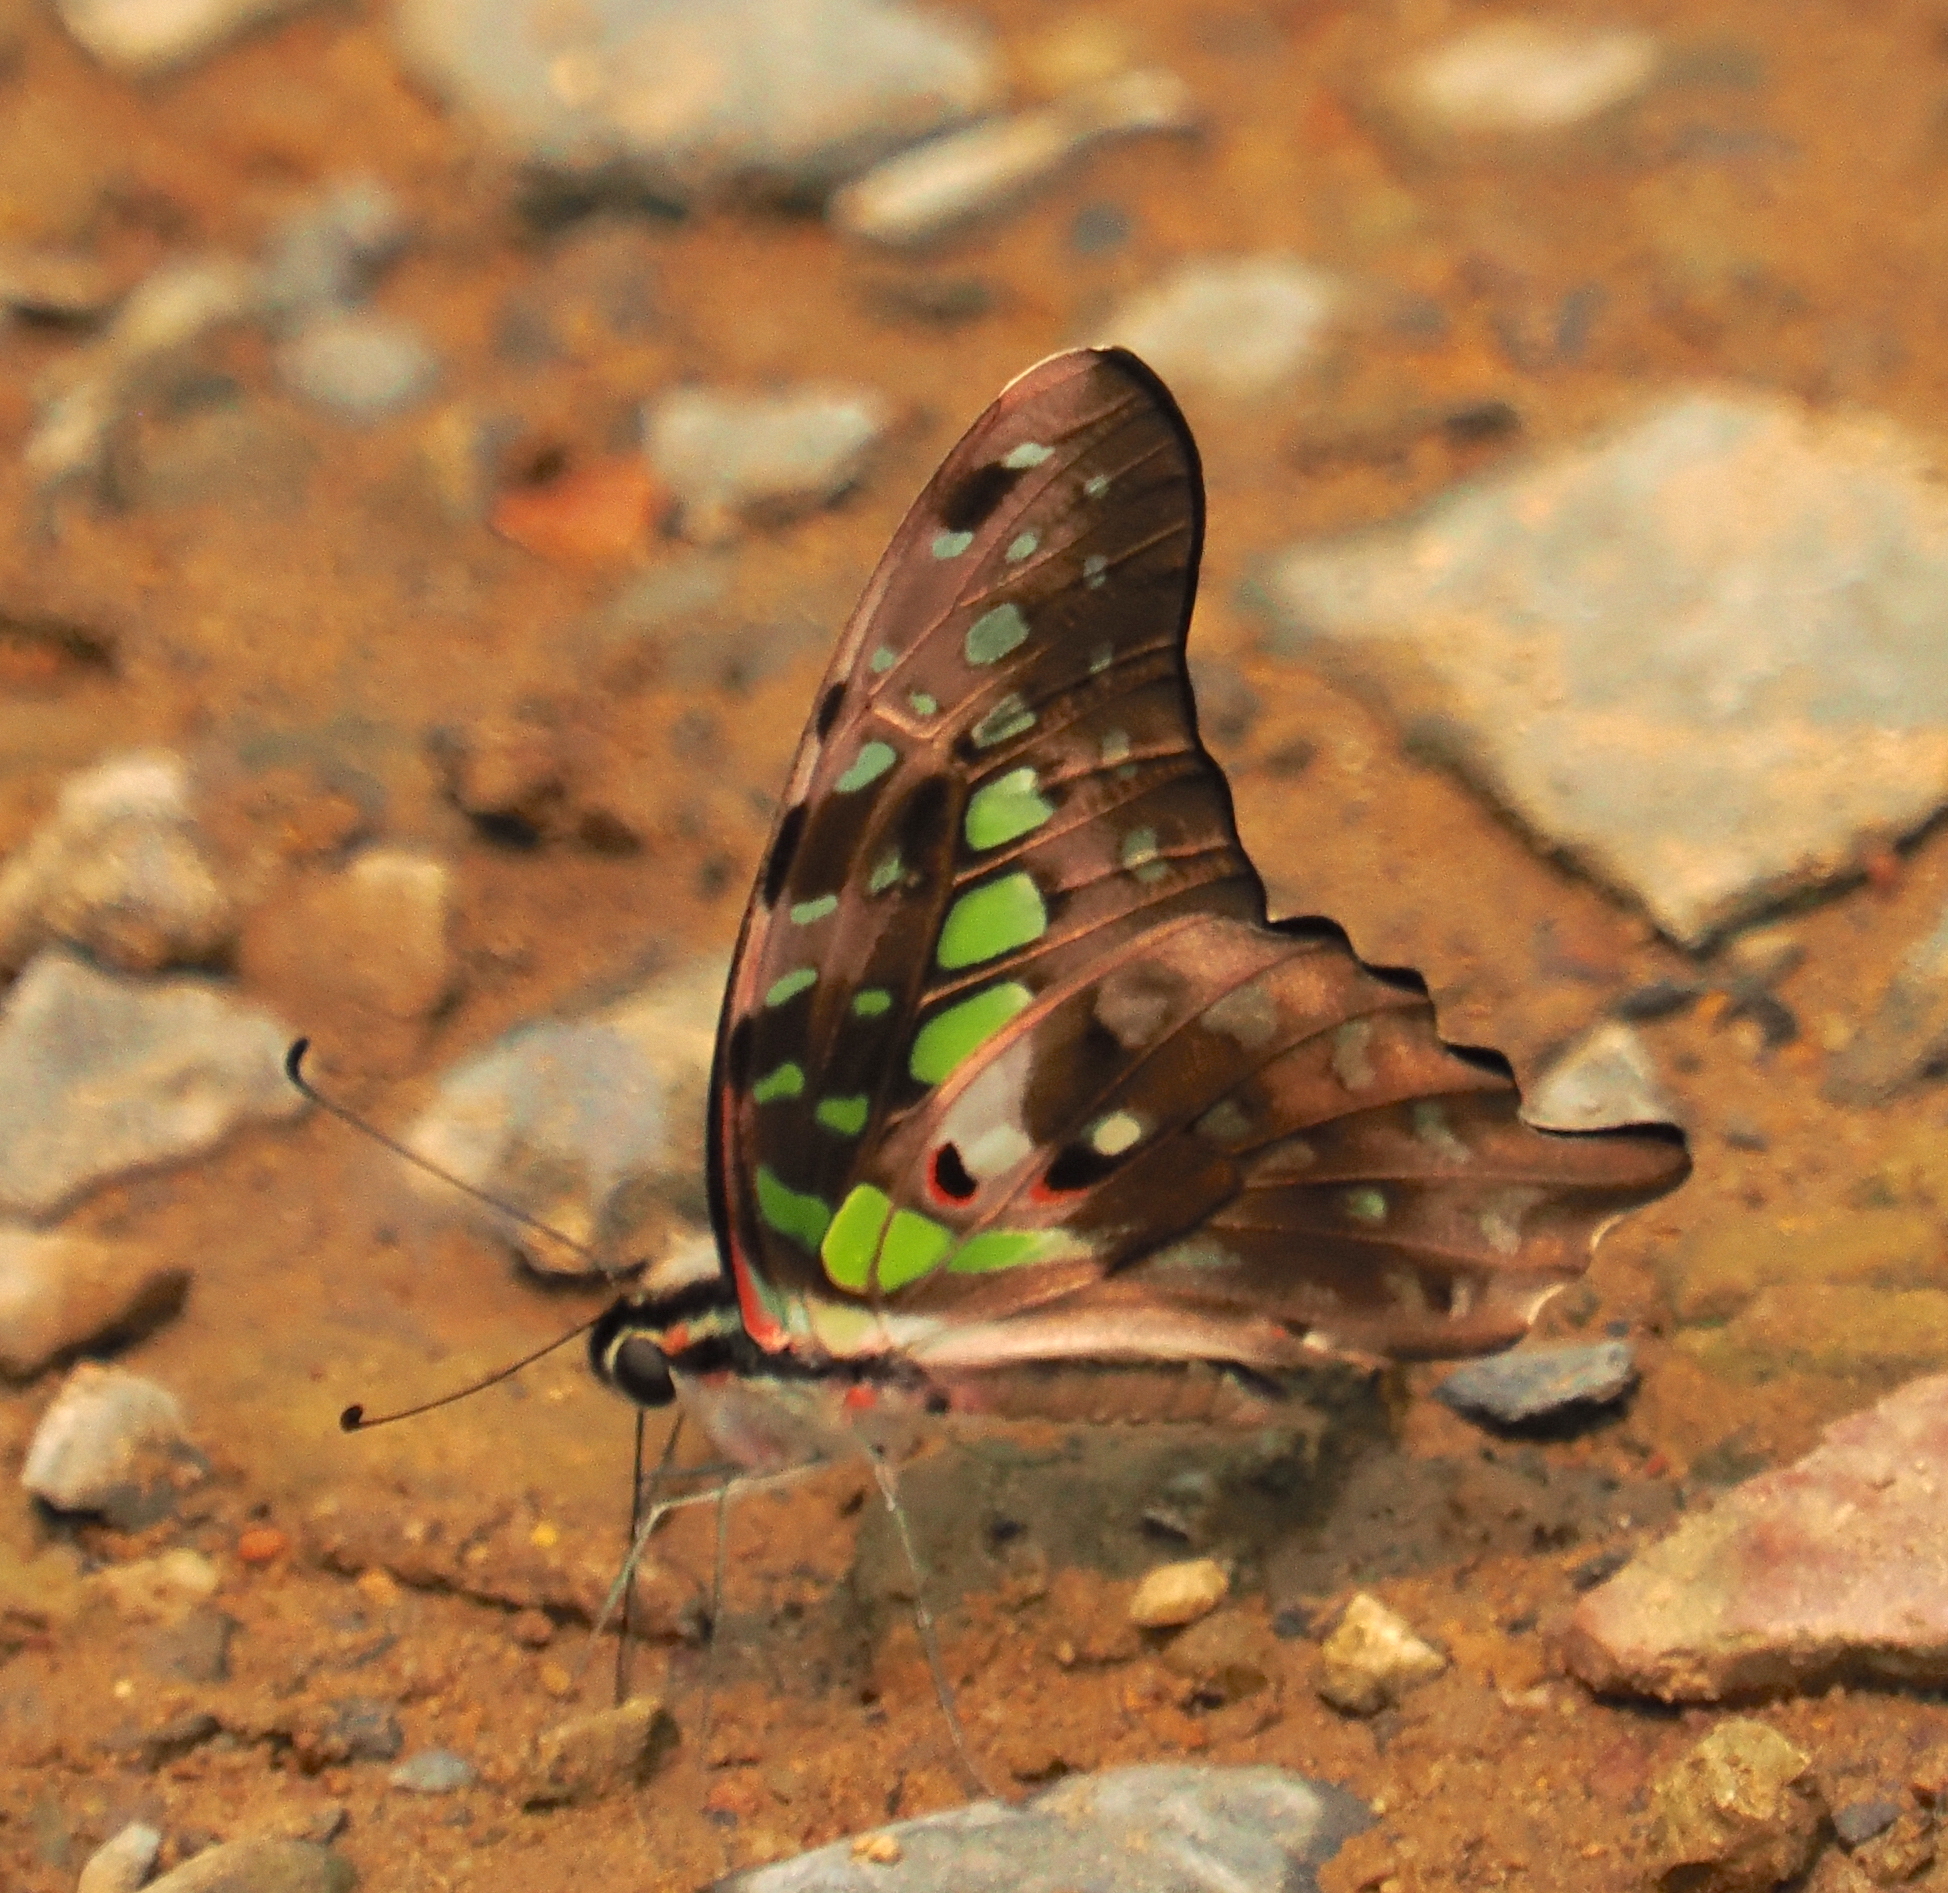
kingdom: Animalia
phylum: Arthropoda
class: Insecta
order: Lepidoptera
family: Papilionidae
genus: Graphium
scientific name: Graphium agamemnon
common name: Tailed jay
